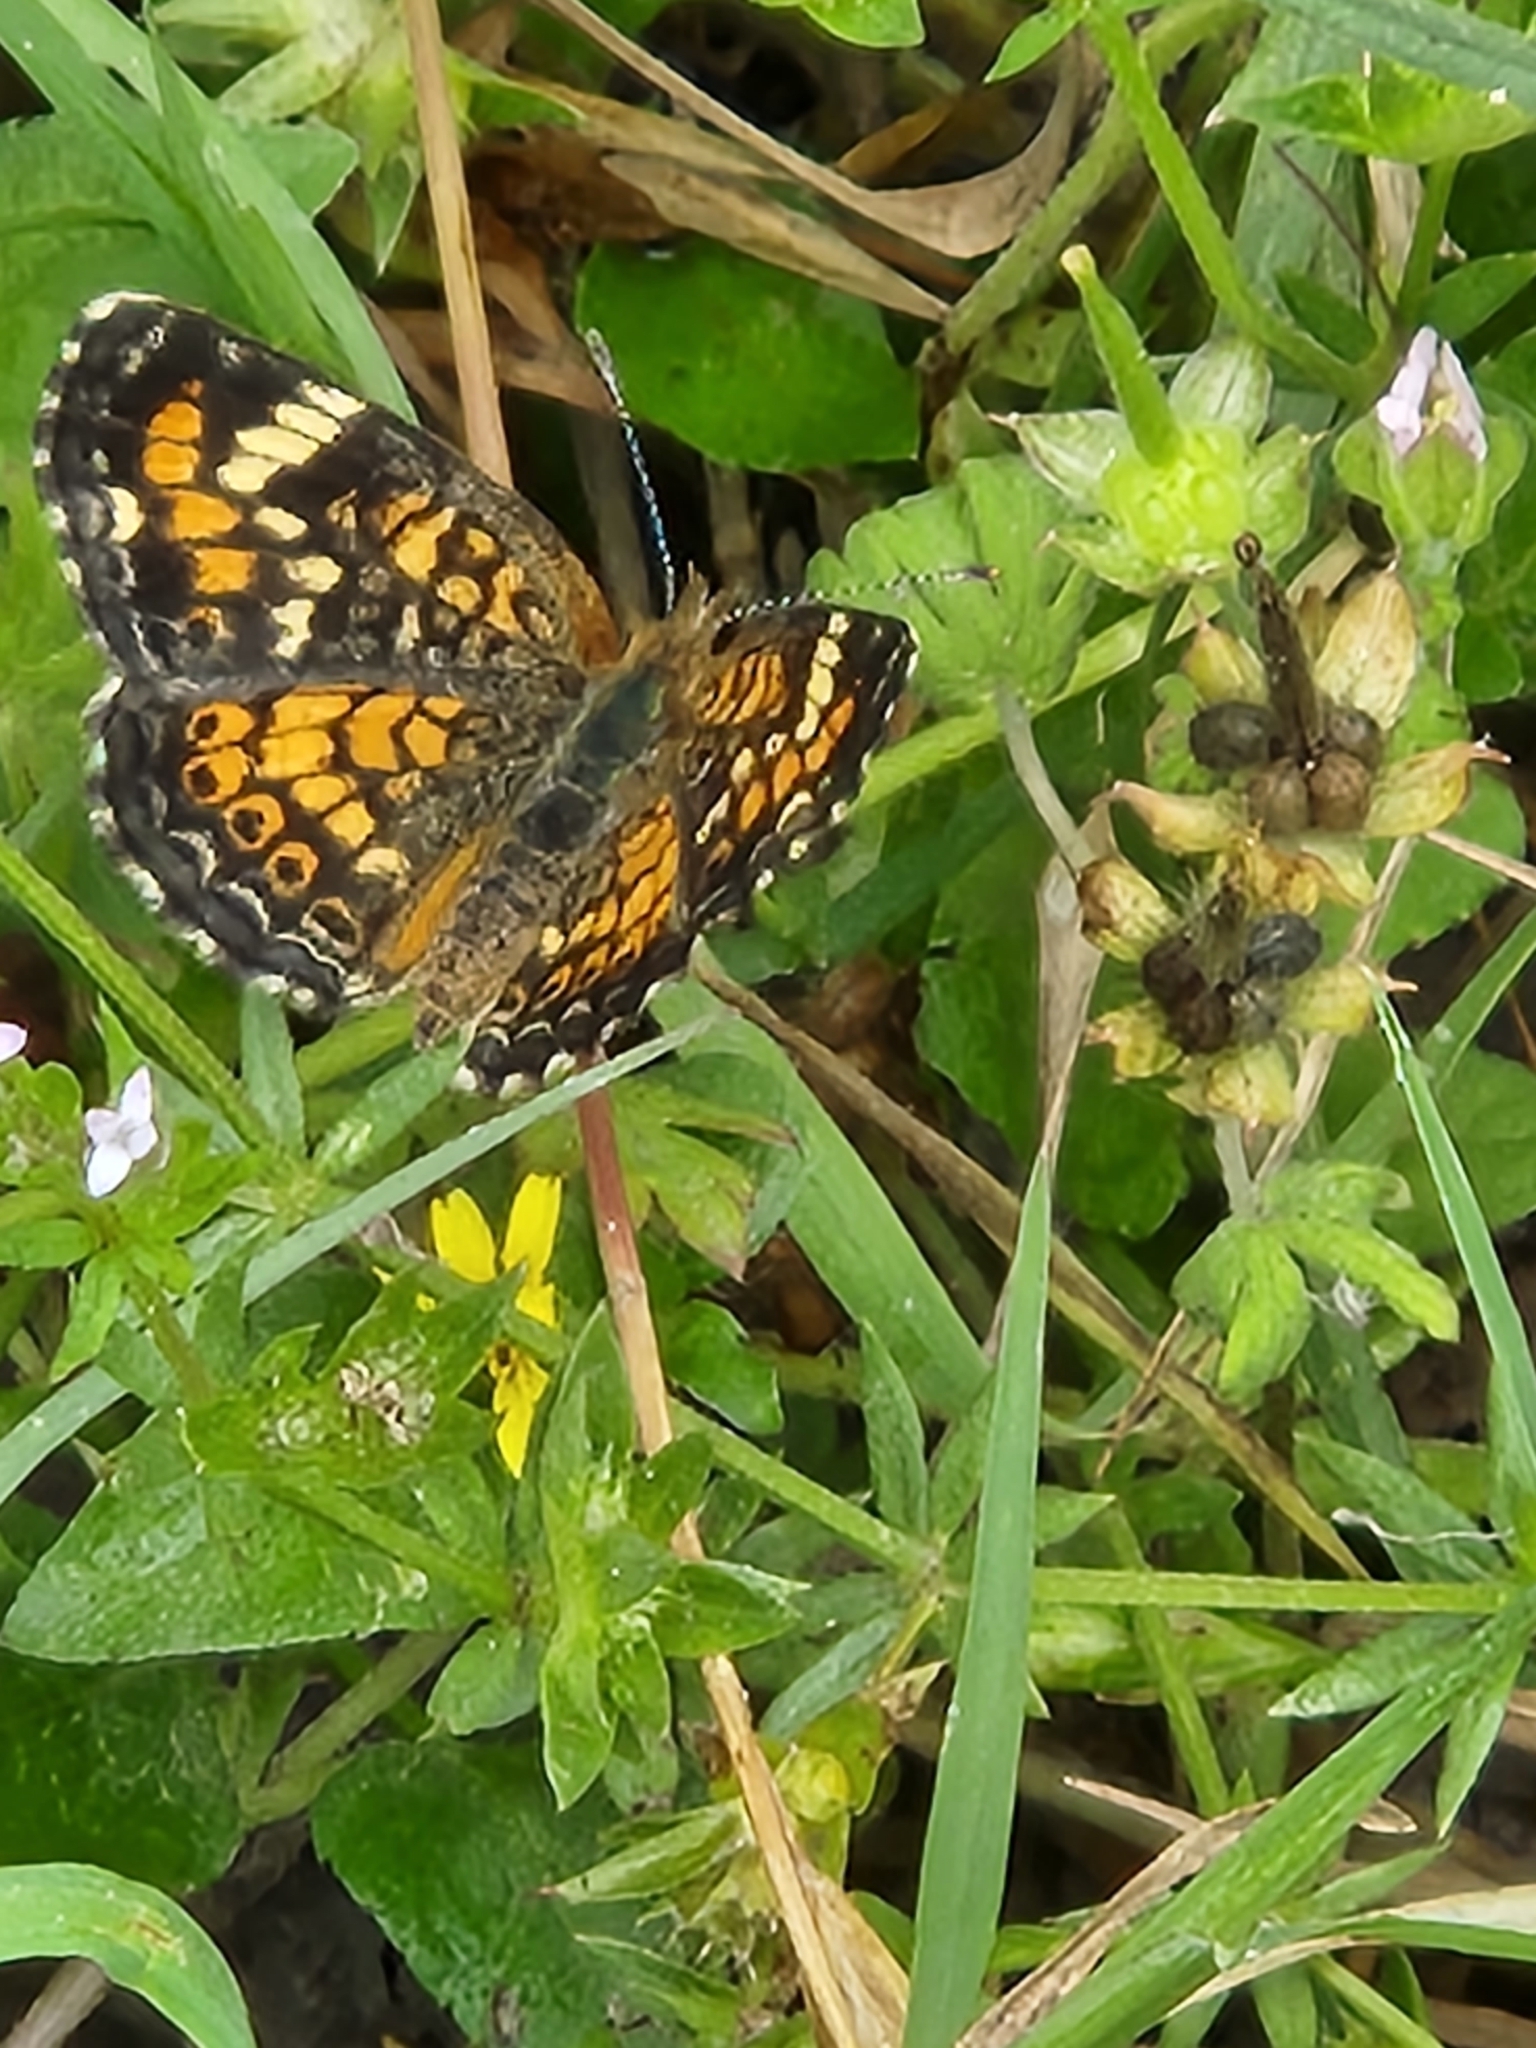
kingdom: Animalia
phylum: Arthropoda
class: Insecta
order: Lepidoptera
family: Nymphalidae
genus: Phyciodes
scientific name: Phyciodes phaon
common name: Phaon crescent
